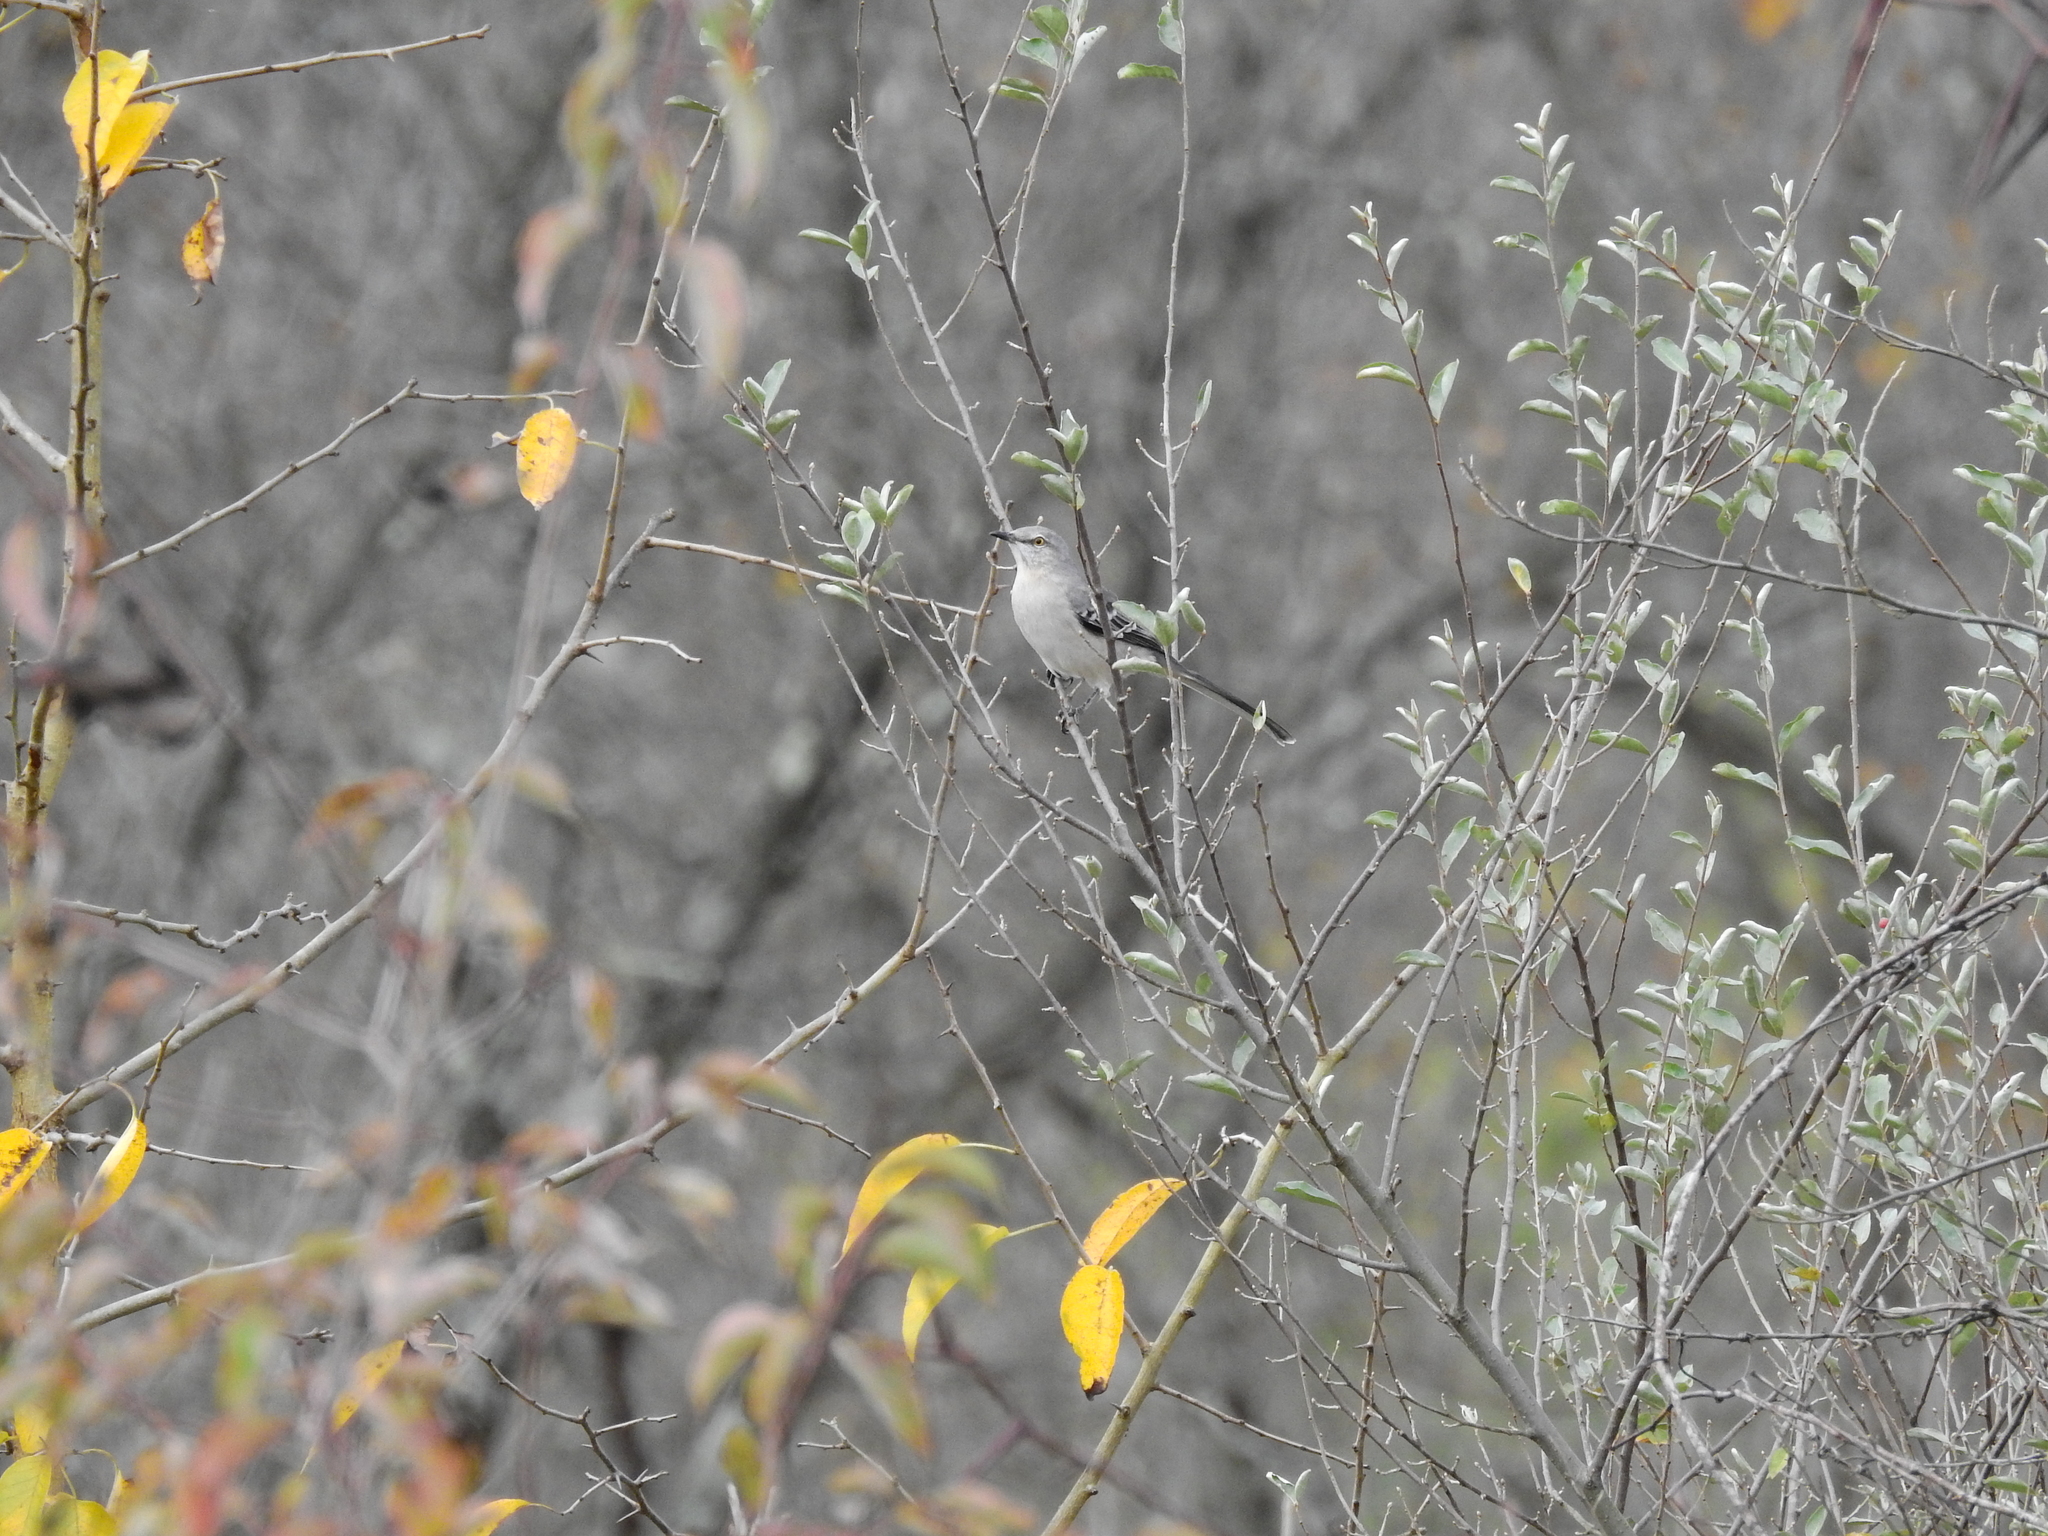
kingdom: Animalia
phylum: Chordata
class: Aves
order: Passeriformes
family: Mimidae
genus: Mimus
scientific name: Mimus polyglottos
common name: Northern mockingbird
